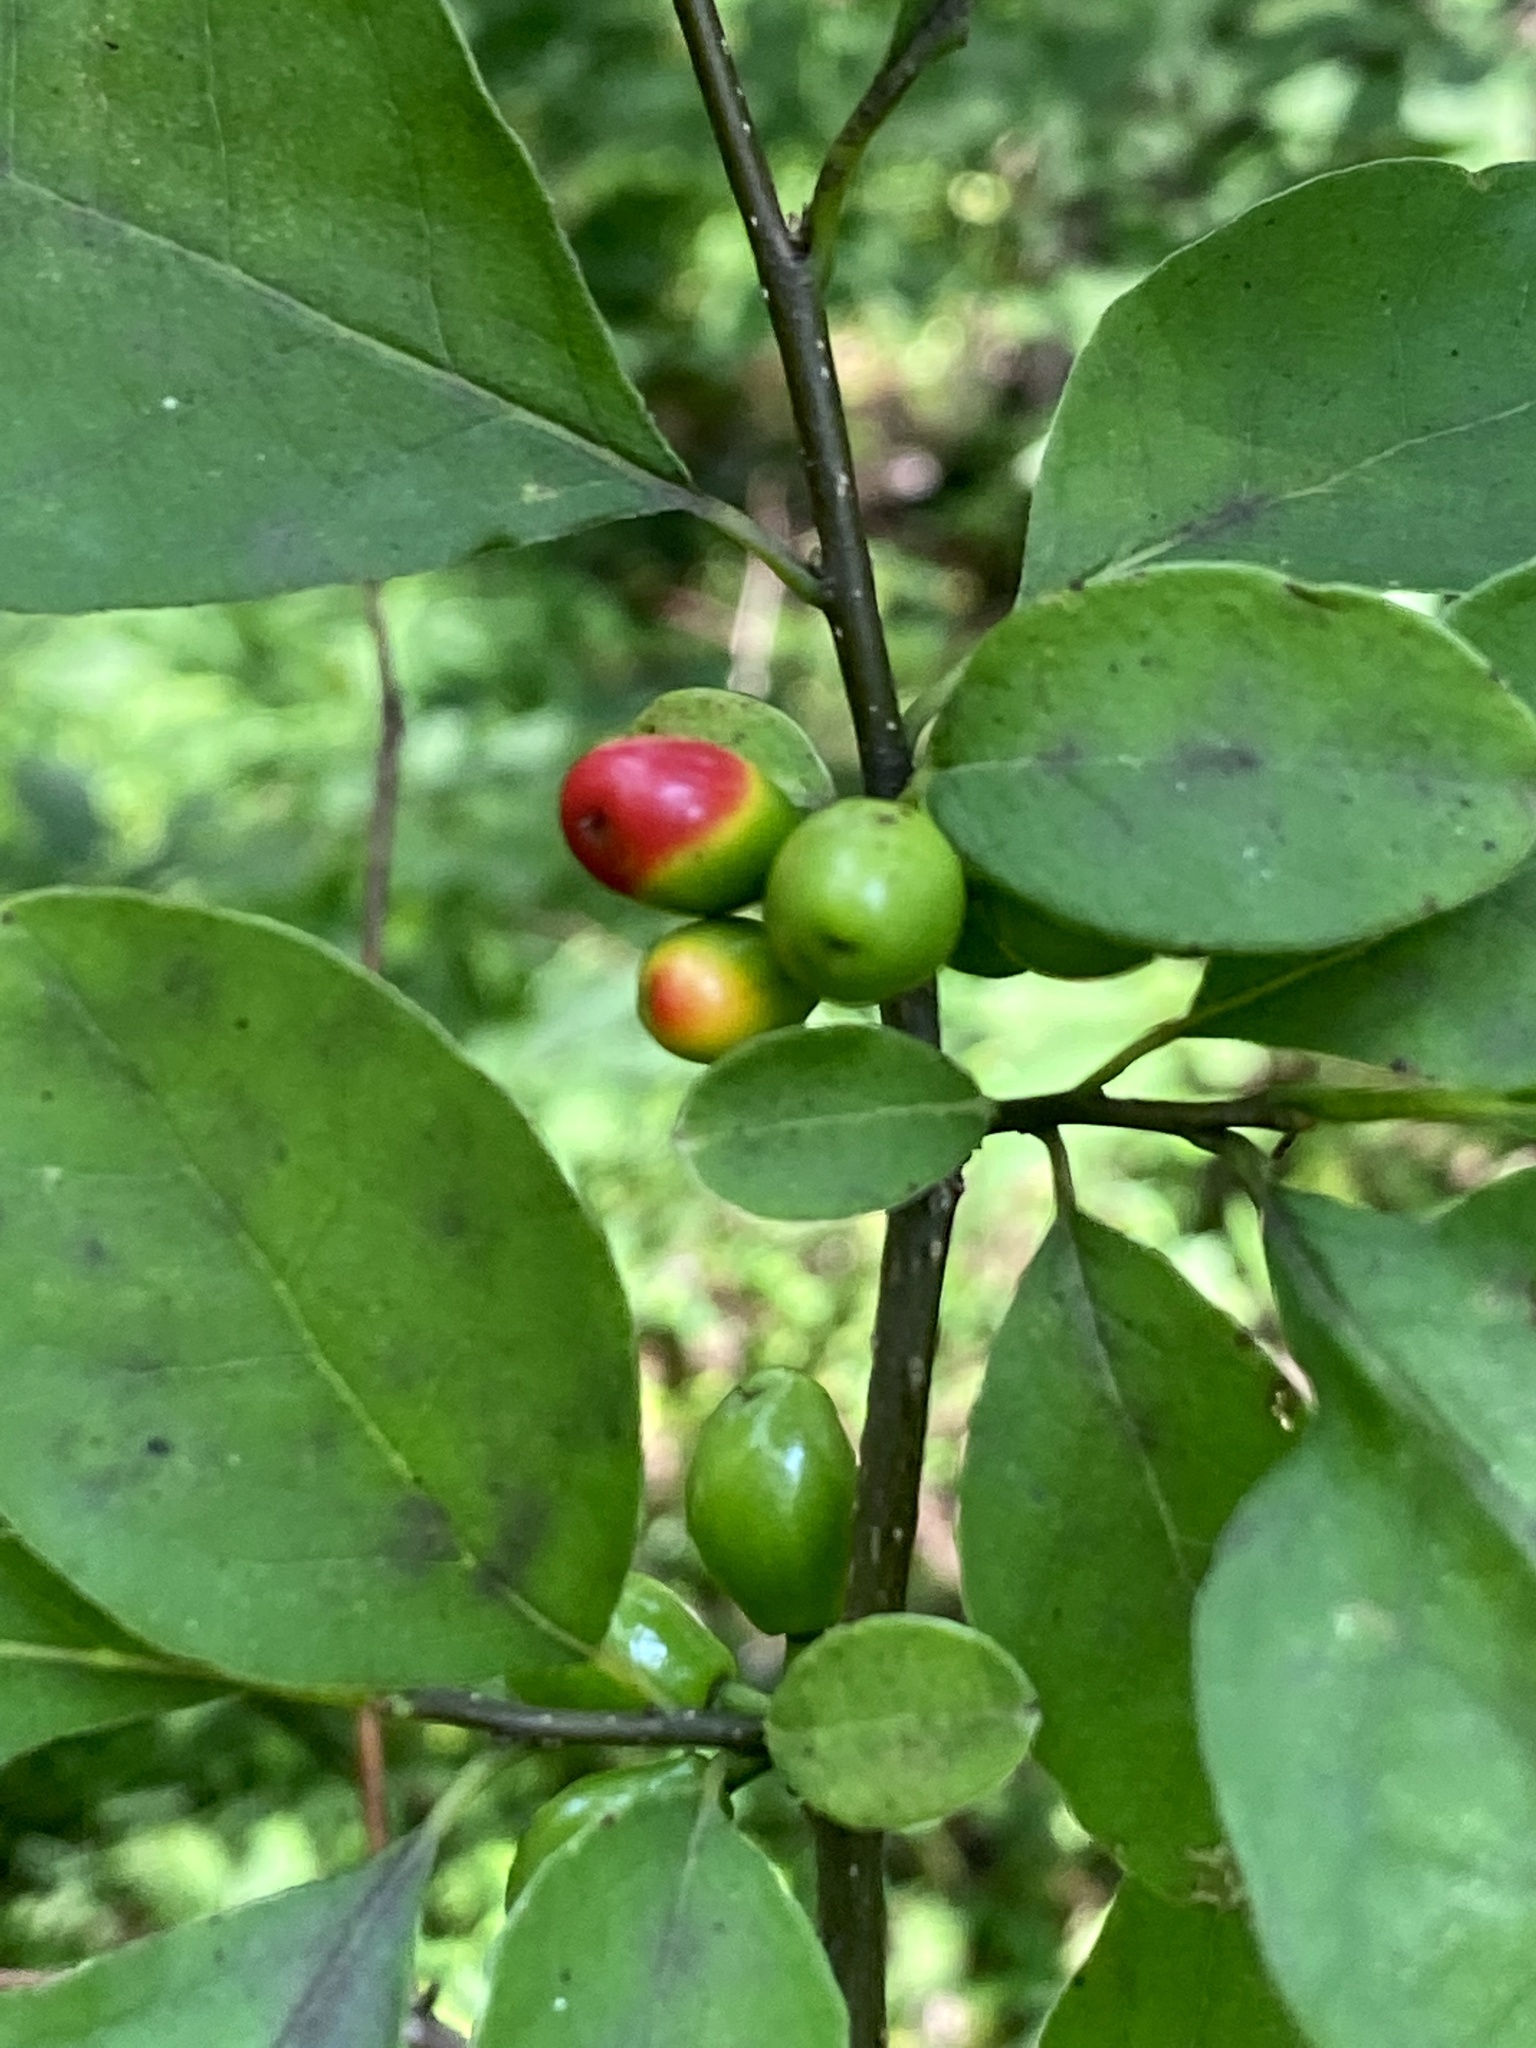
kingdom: Plantae
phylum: Tracheophyta
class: Magnoliopsida
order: Laurales
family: Lauraceae
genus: Lindera
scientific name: Lindera benzoin
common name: Spicebush
